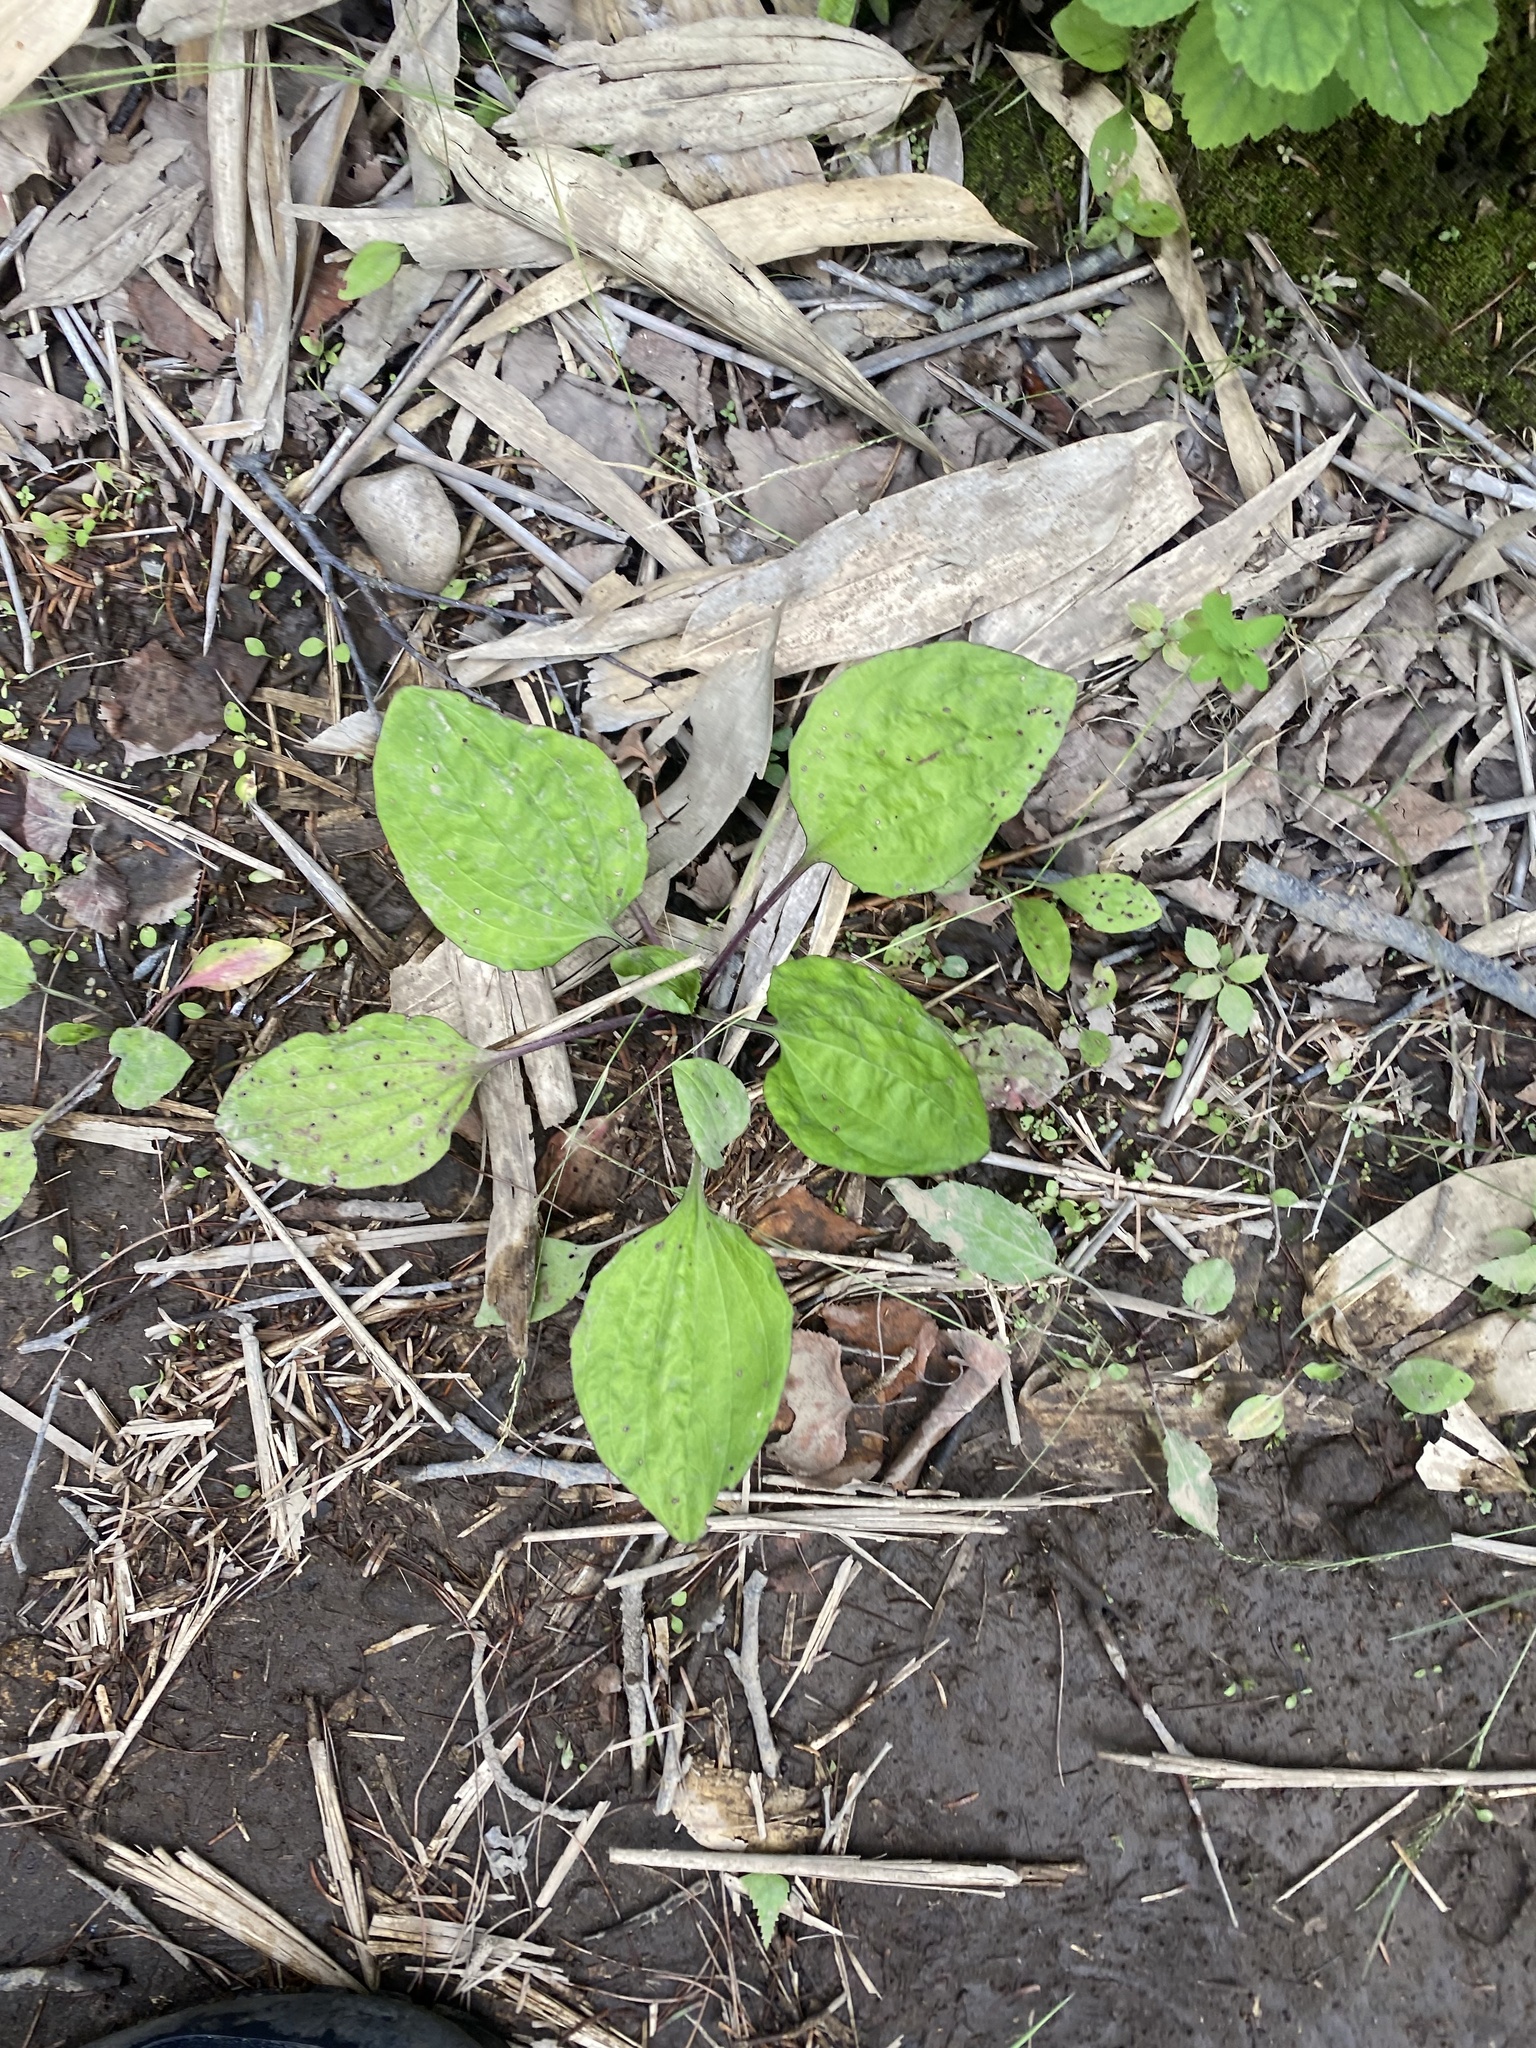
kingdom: Plantae
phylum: Tracheophyta
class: Magnoliopsida
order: Lamiales
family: Plantaginaceae
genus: Plantago
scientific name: Plantago major
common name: Common plantain
